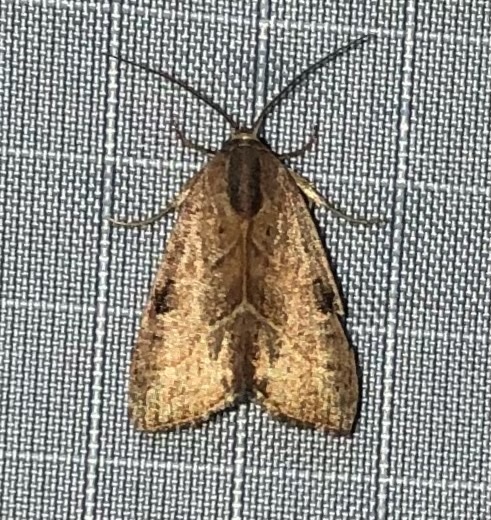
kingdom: Animalia
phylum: Arthropoda
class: Insecta
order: Lepidoptera
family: Noctuidae
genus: Galgula
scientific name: Galgula partita
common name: Wedgeling
